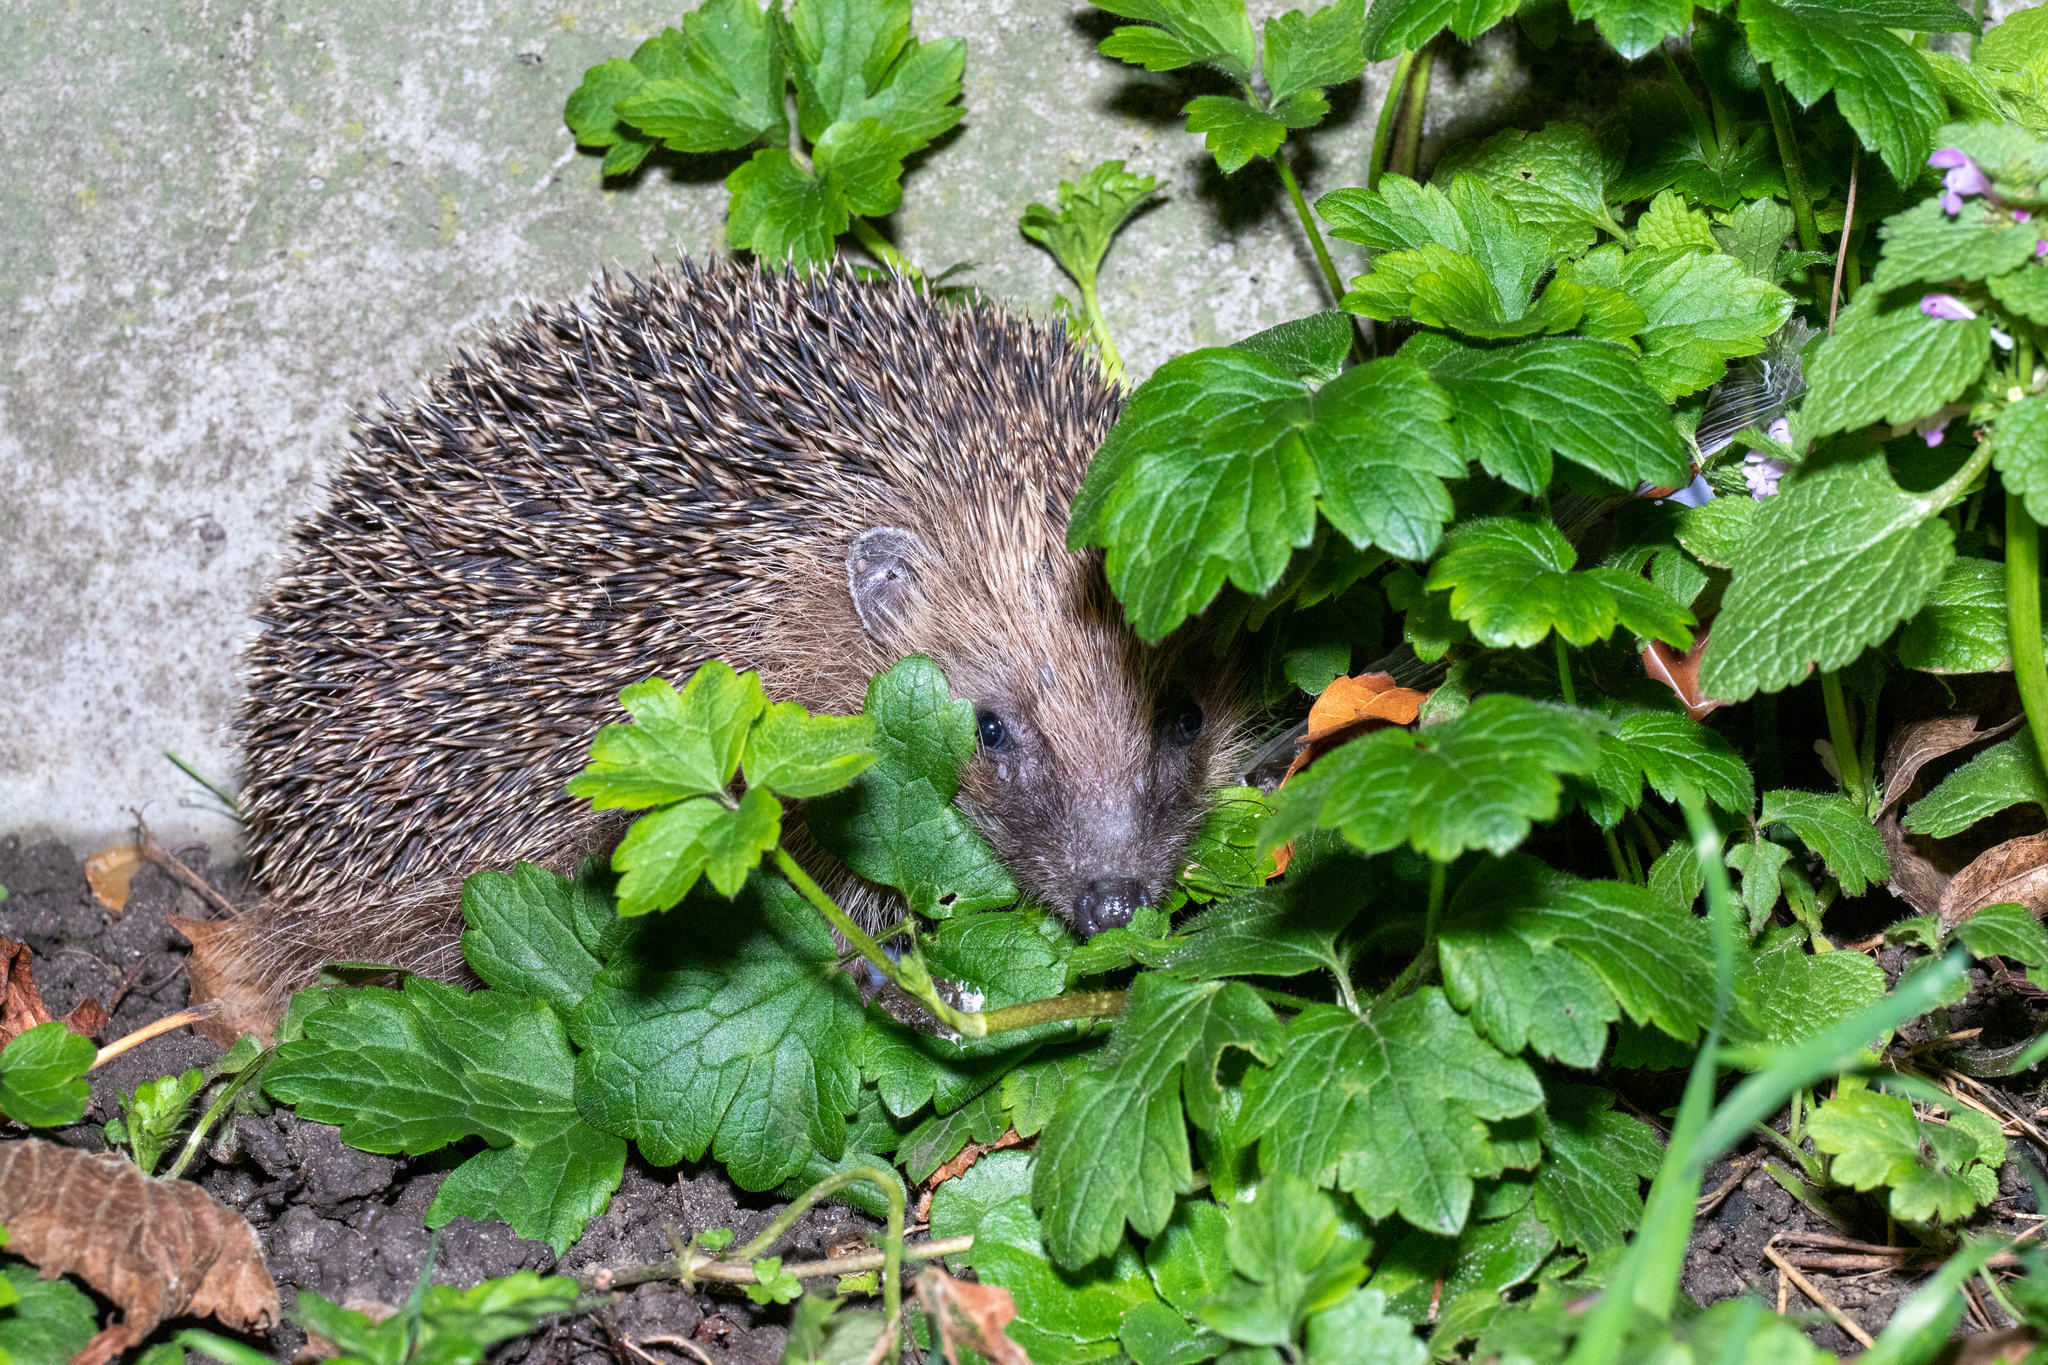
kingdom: Animalia
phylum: Chordata
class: Mammalia
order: Erinaceomorpha
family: Erinaceidae
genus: Erinaceus
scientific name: Erinaceus europaeus
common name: West european hedgehog
